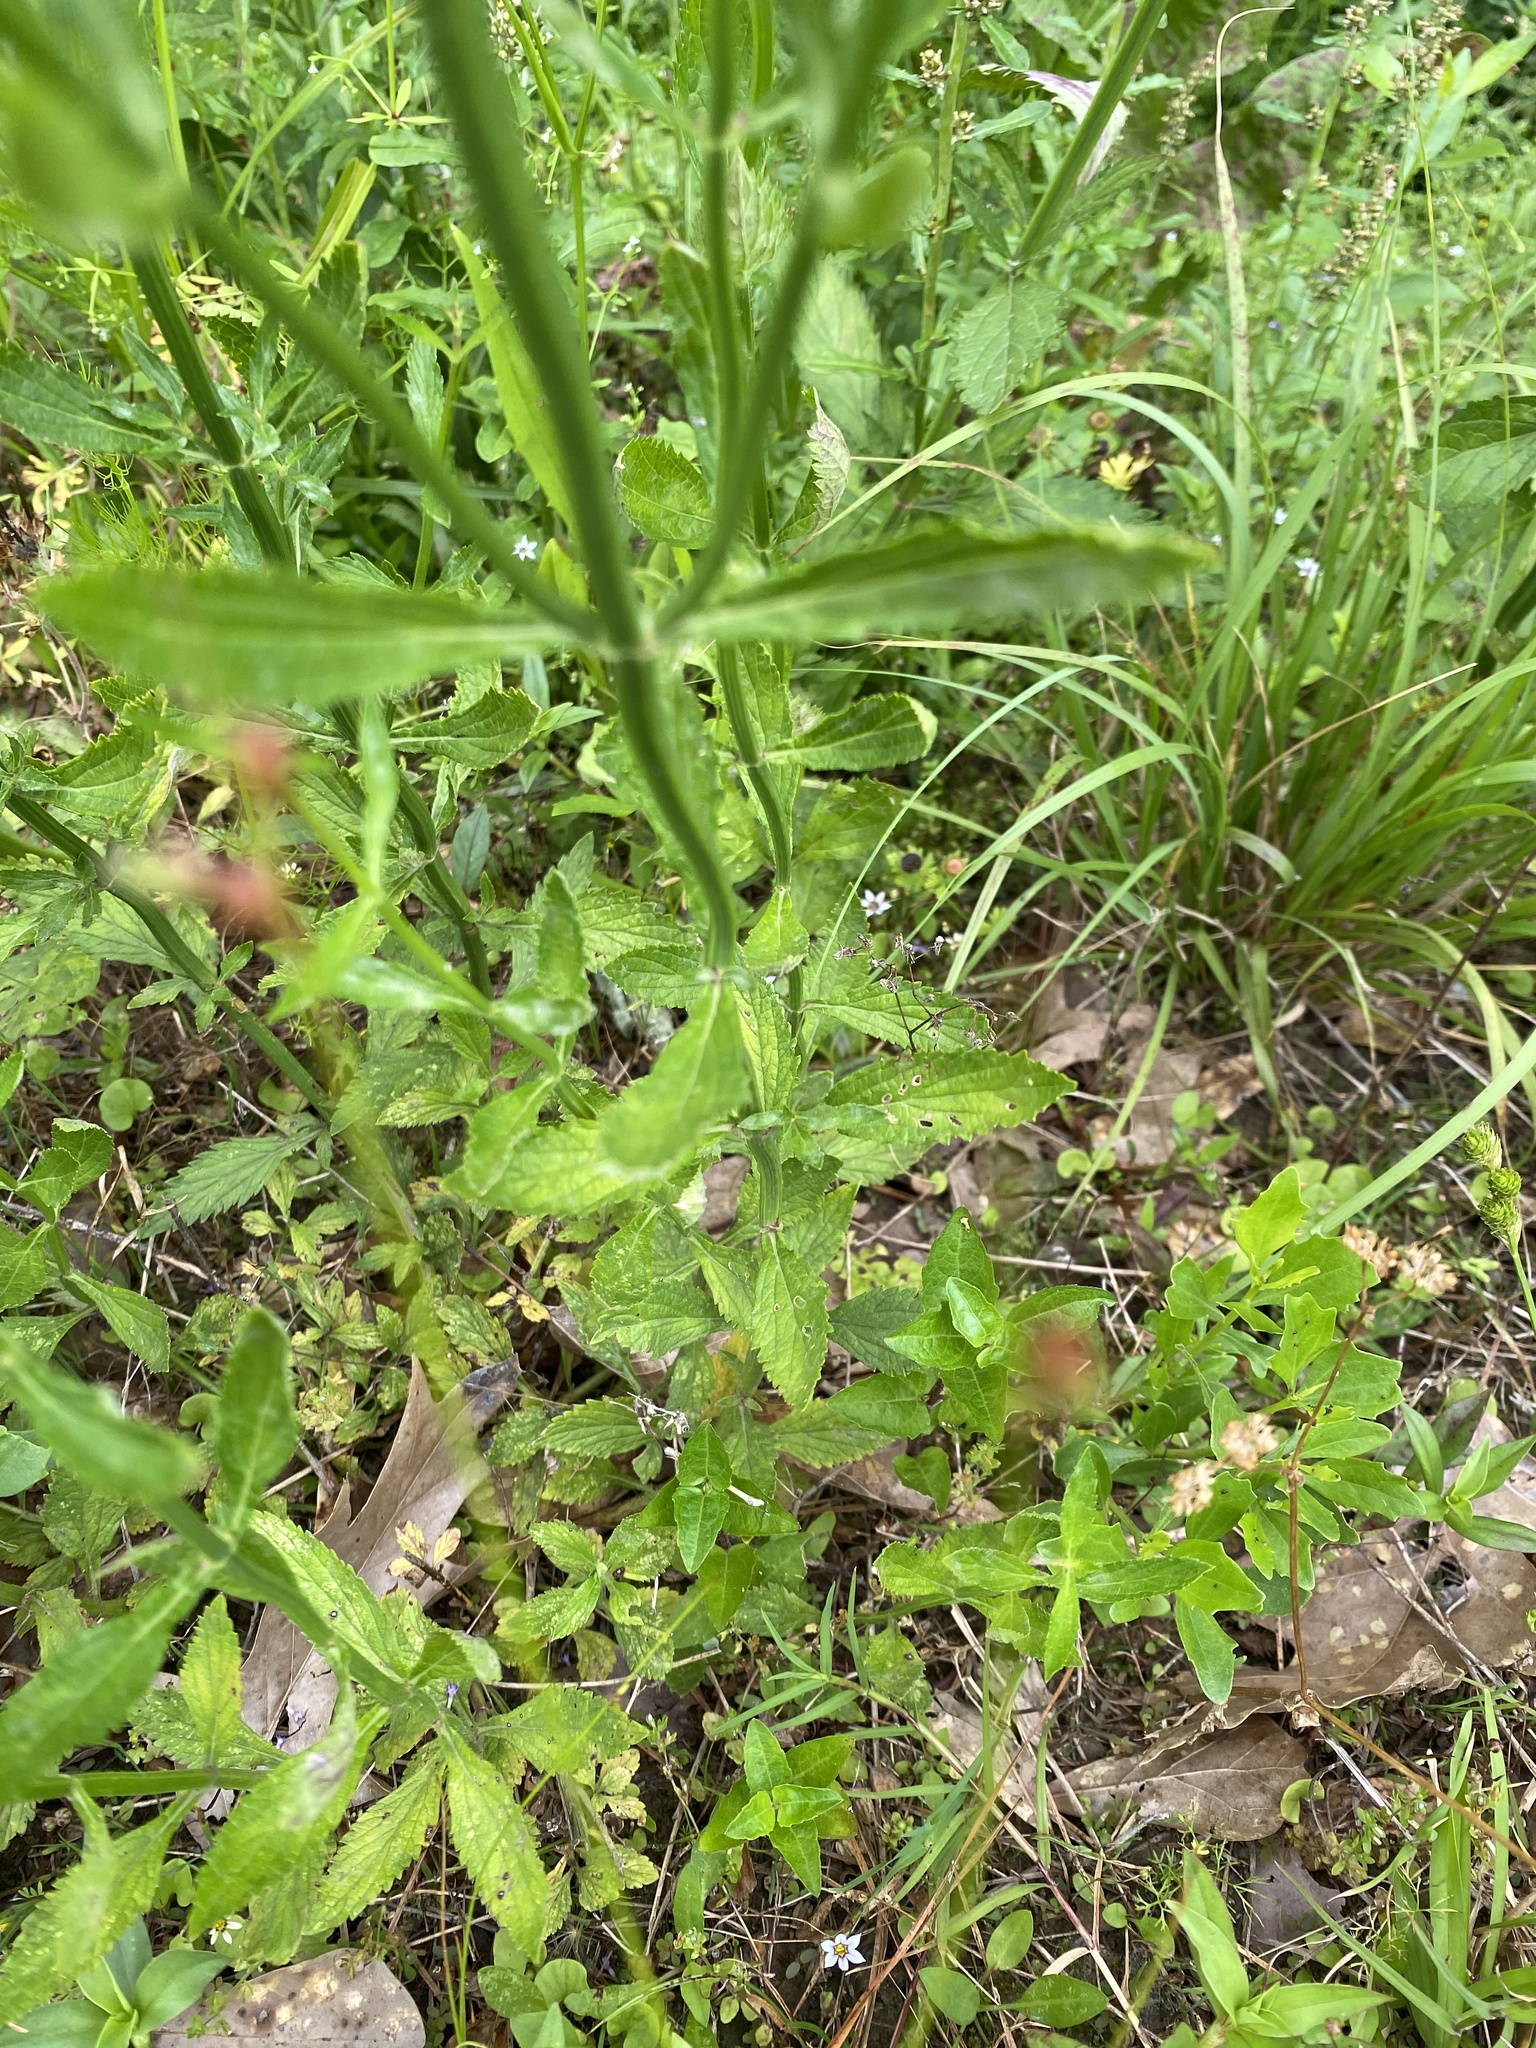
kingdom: Plantae
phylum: Tracheophyta
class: Magnoliopsida
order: Lamiales
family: Verbenaceae
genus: Verbena
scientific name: Verbena brasiliensis
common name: Brazilian vervain
